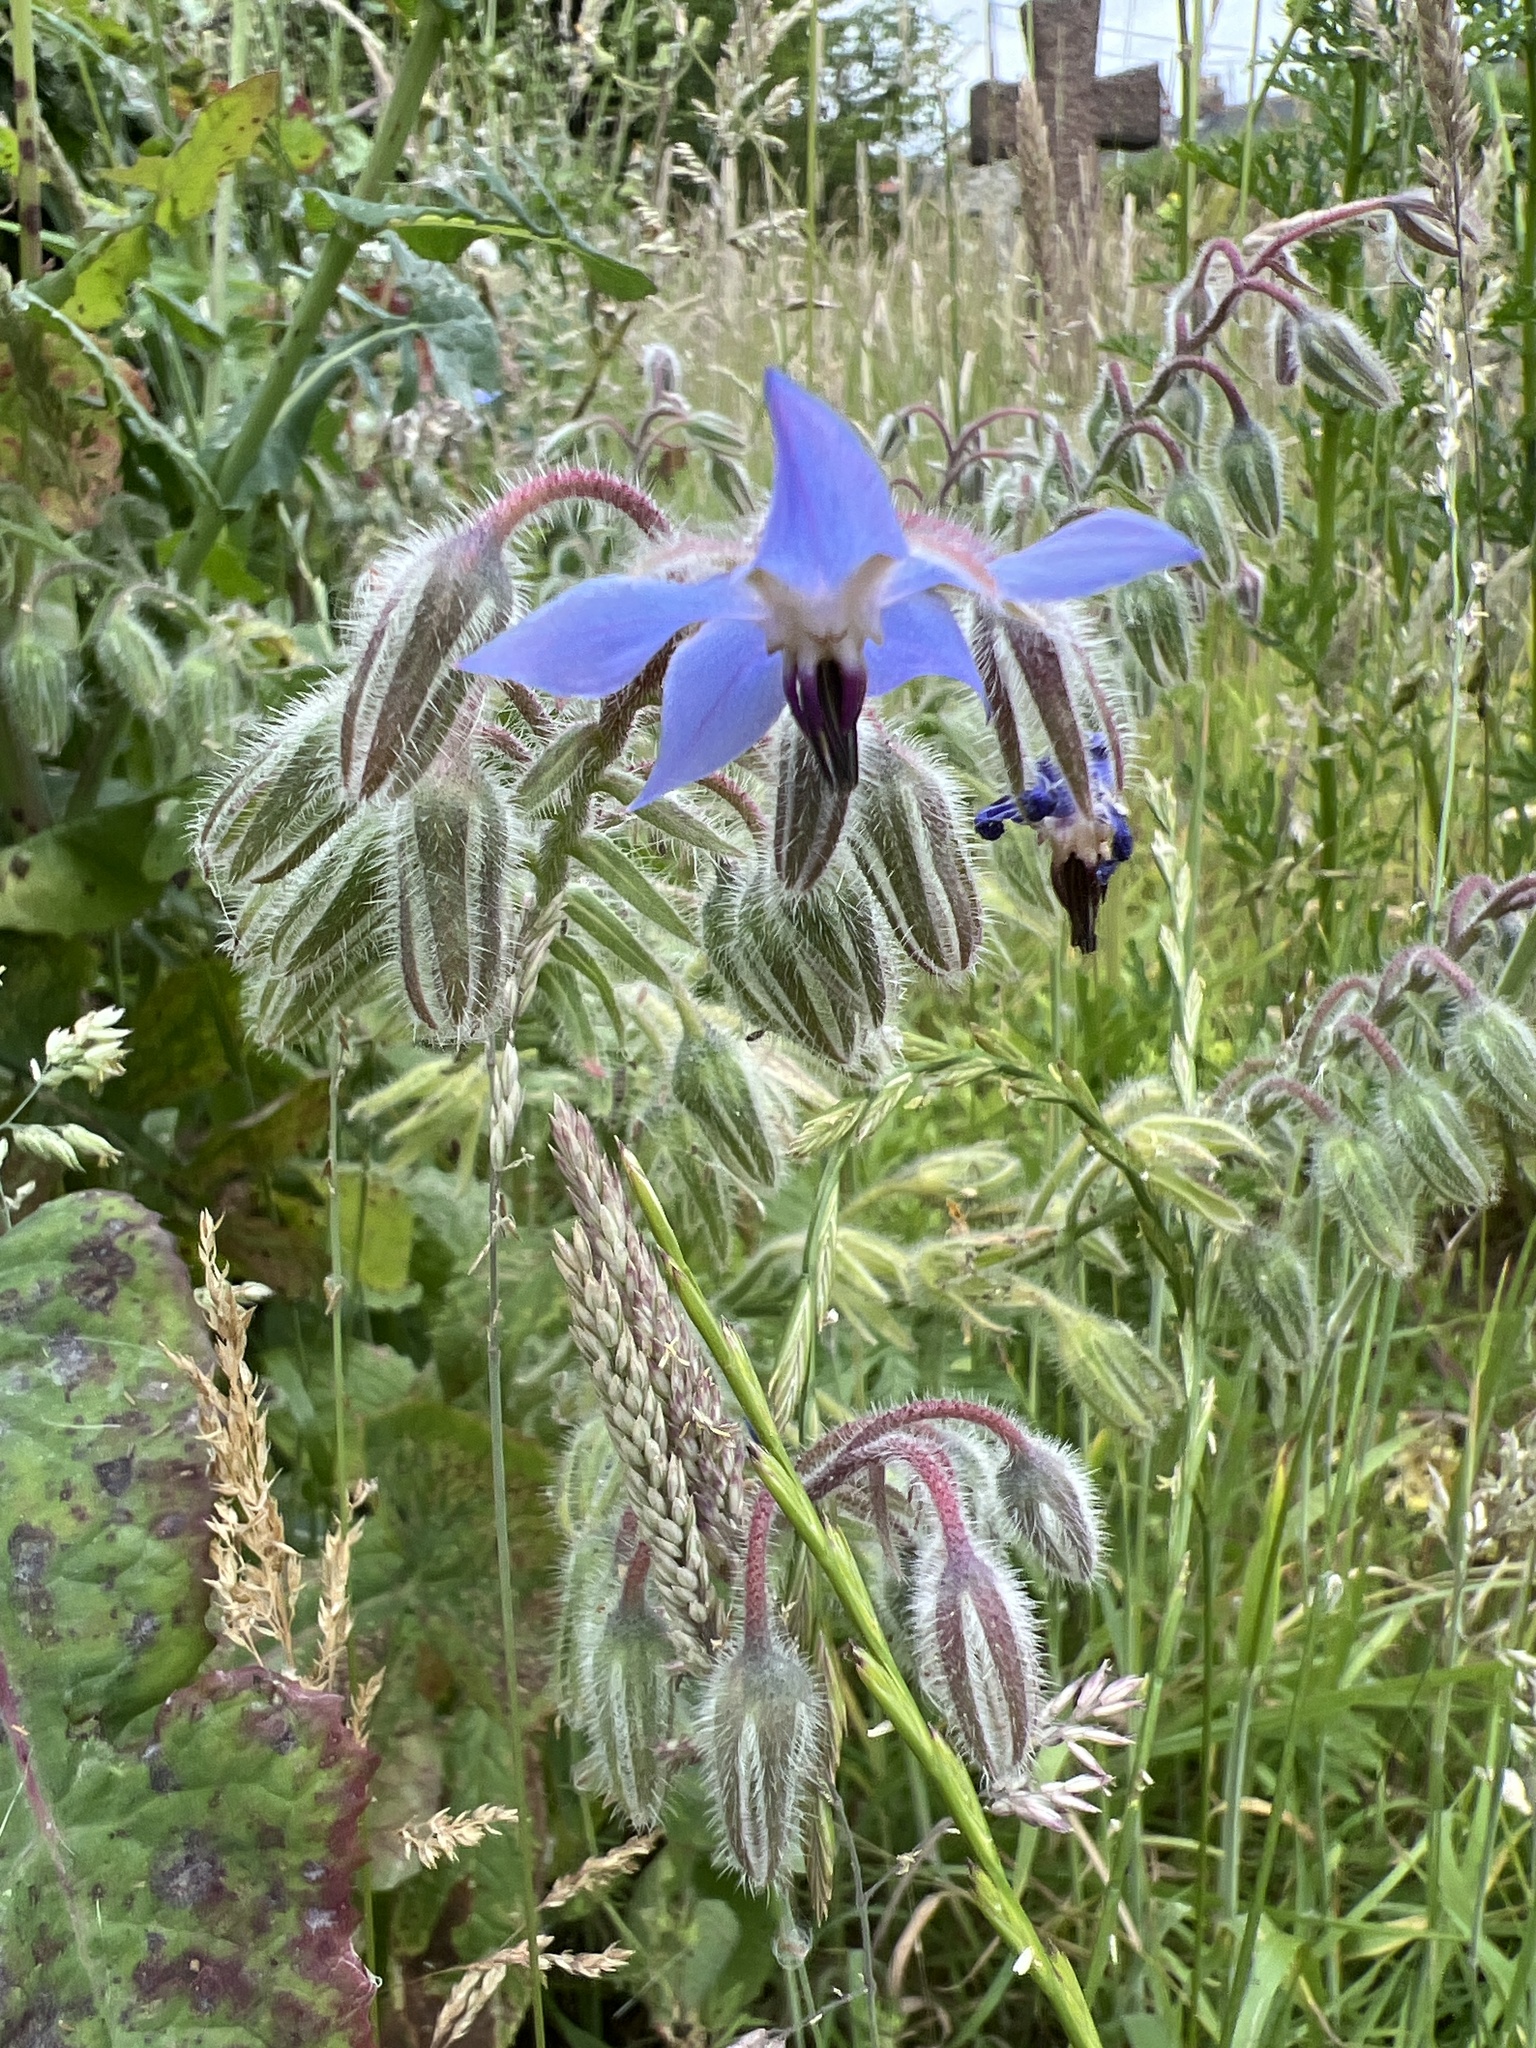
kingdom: Plantae
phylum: Tracheophyta
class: Magnoliopsida
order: Boraginales
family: Boraginaceae
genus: Borago
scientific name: Borago officinalis
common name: Borage
